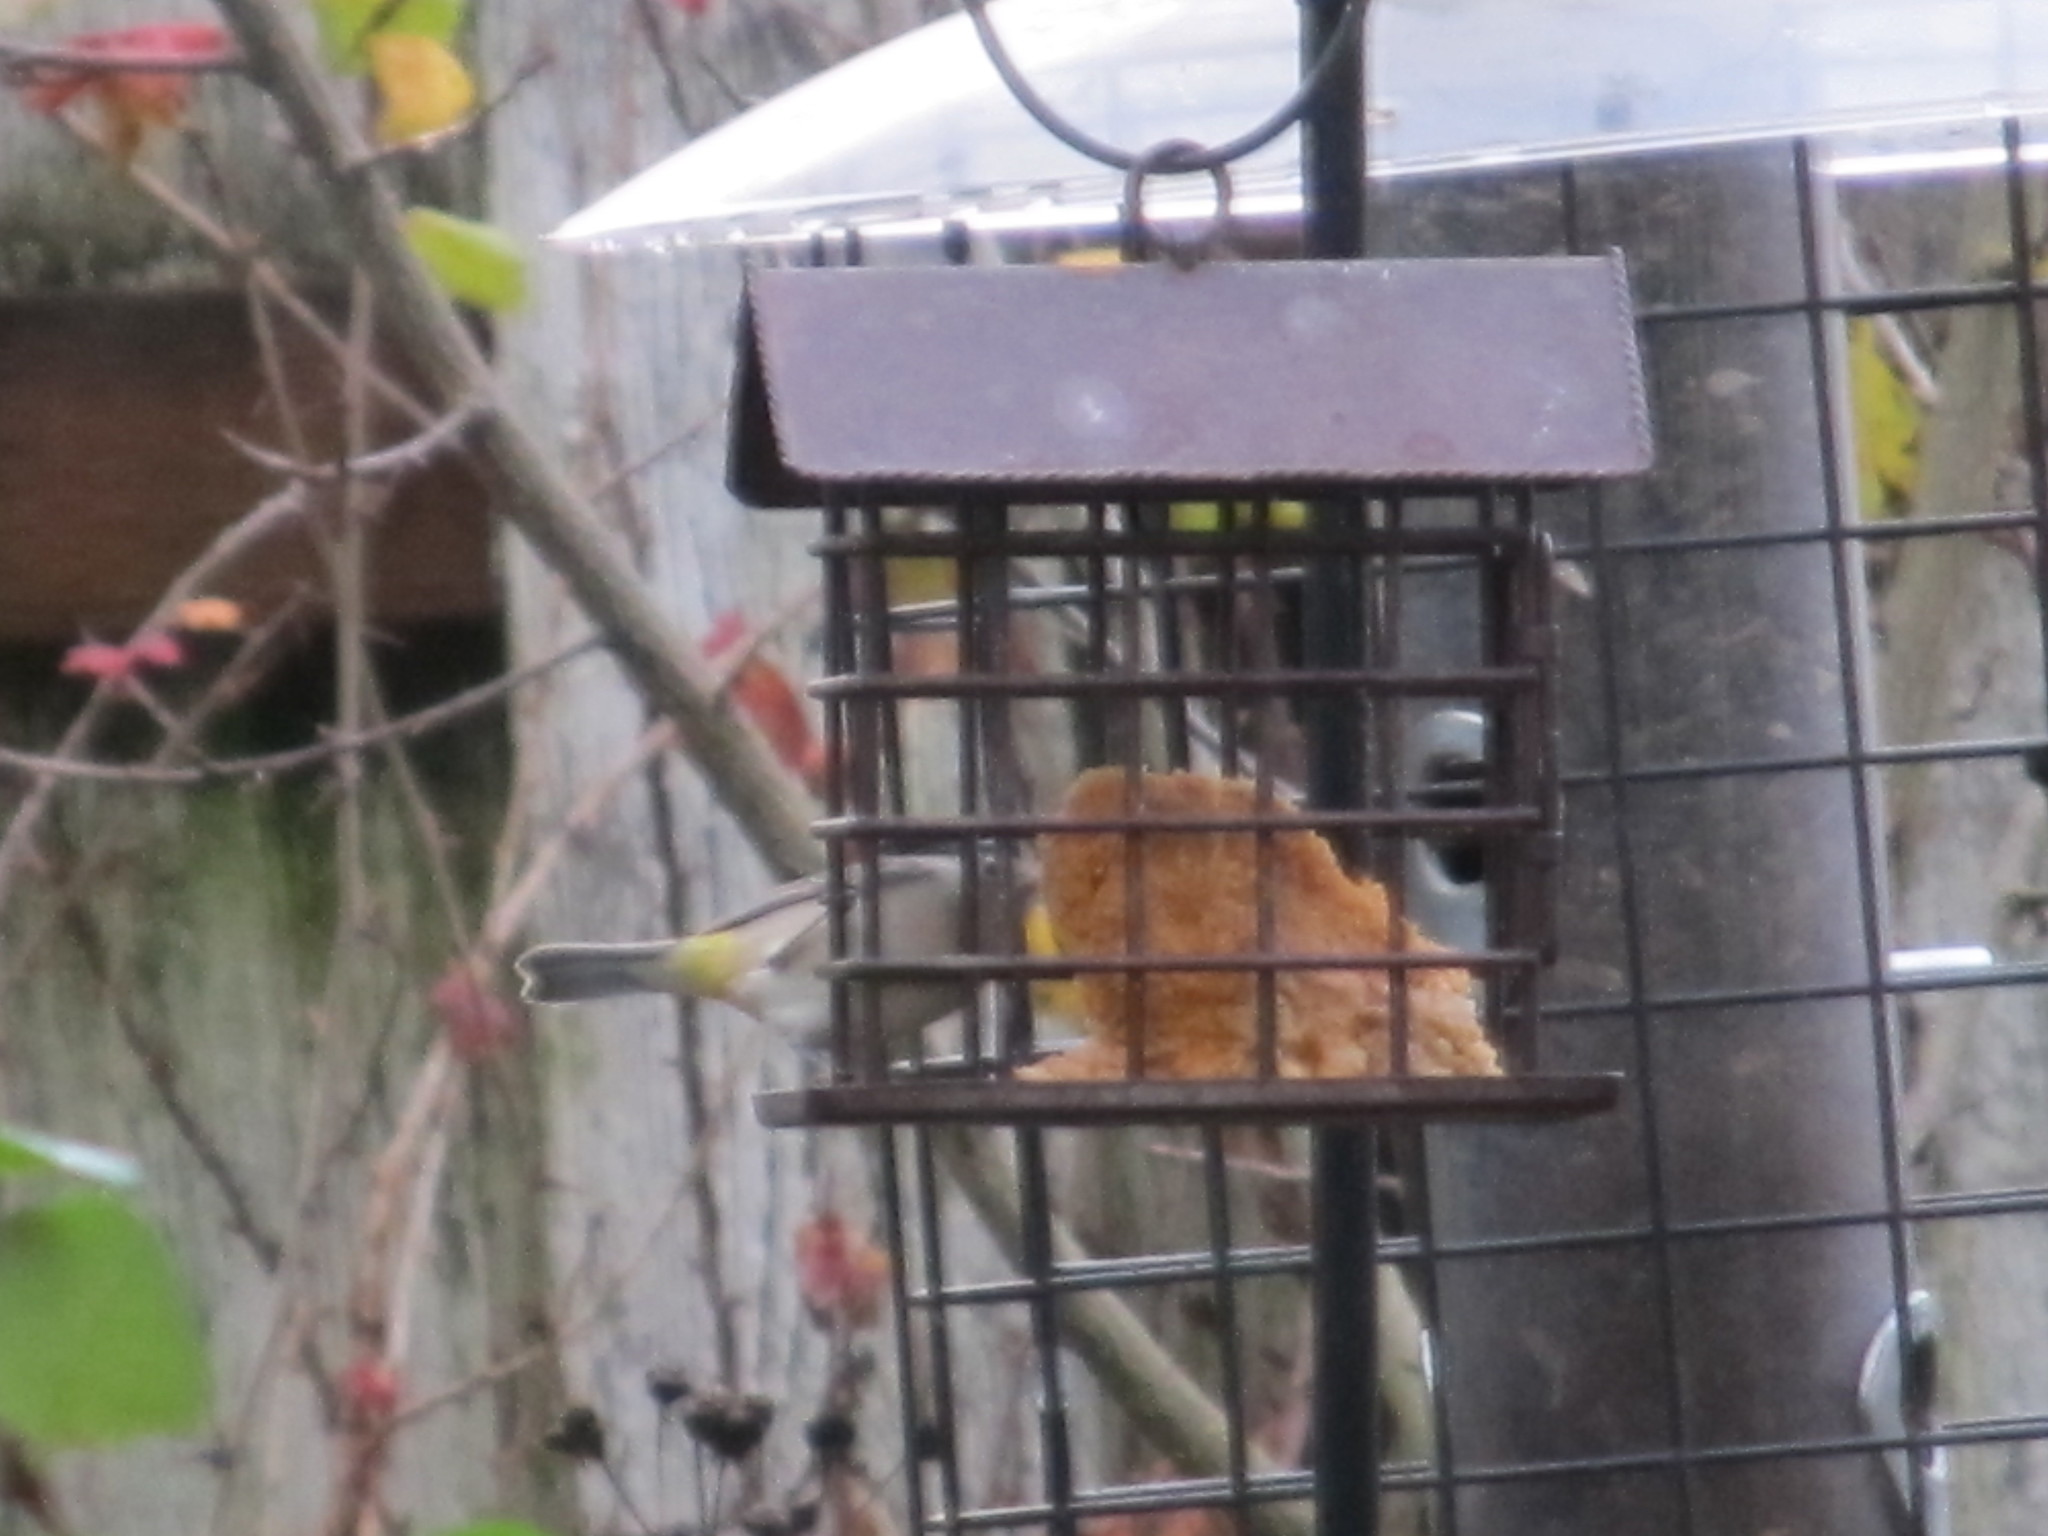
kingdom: Animalia
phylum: Chordata
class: Aves
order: Passeriformes
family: Parulidae
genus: Leiothlypis
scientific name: Leiothlypis virginiae
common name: Virginia's warbler
